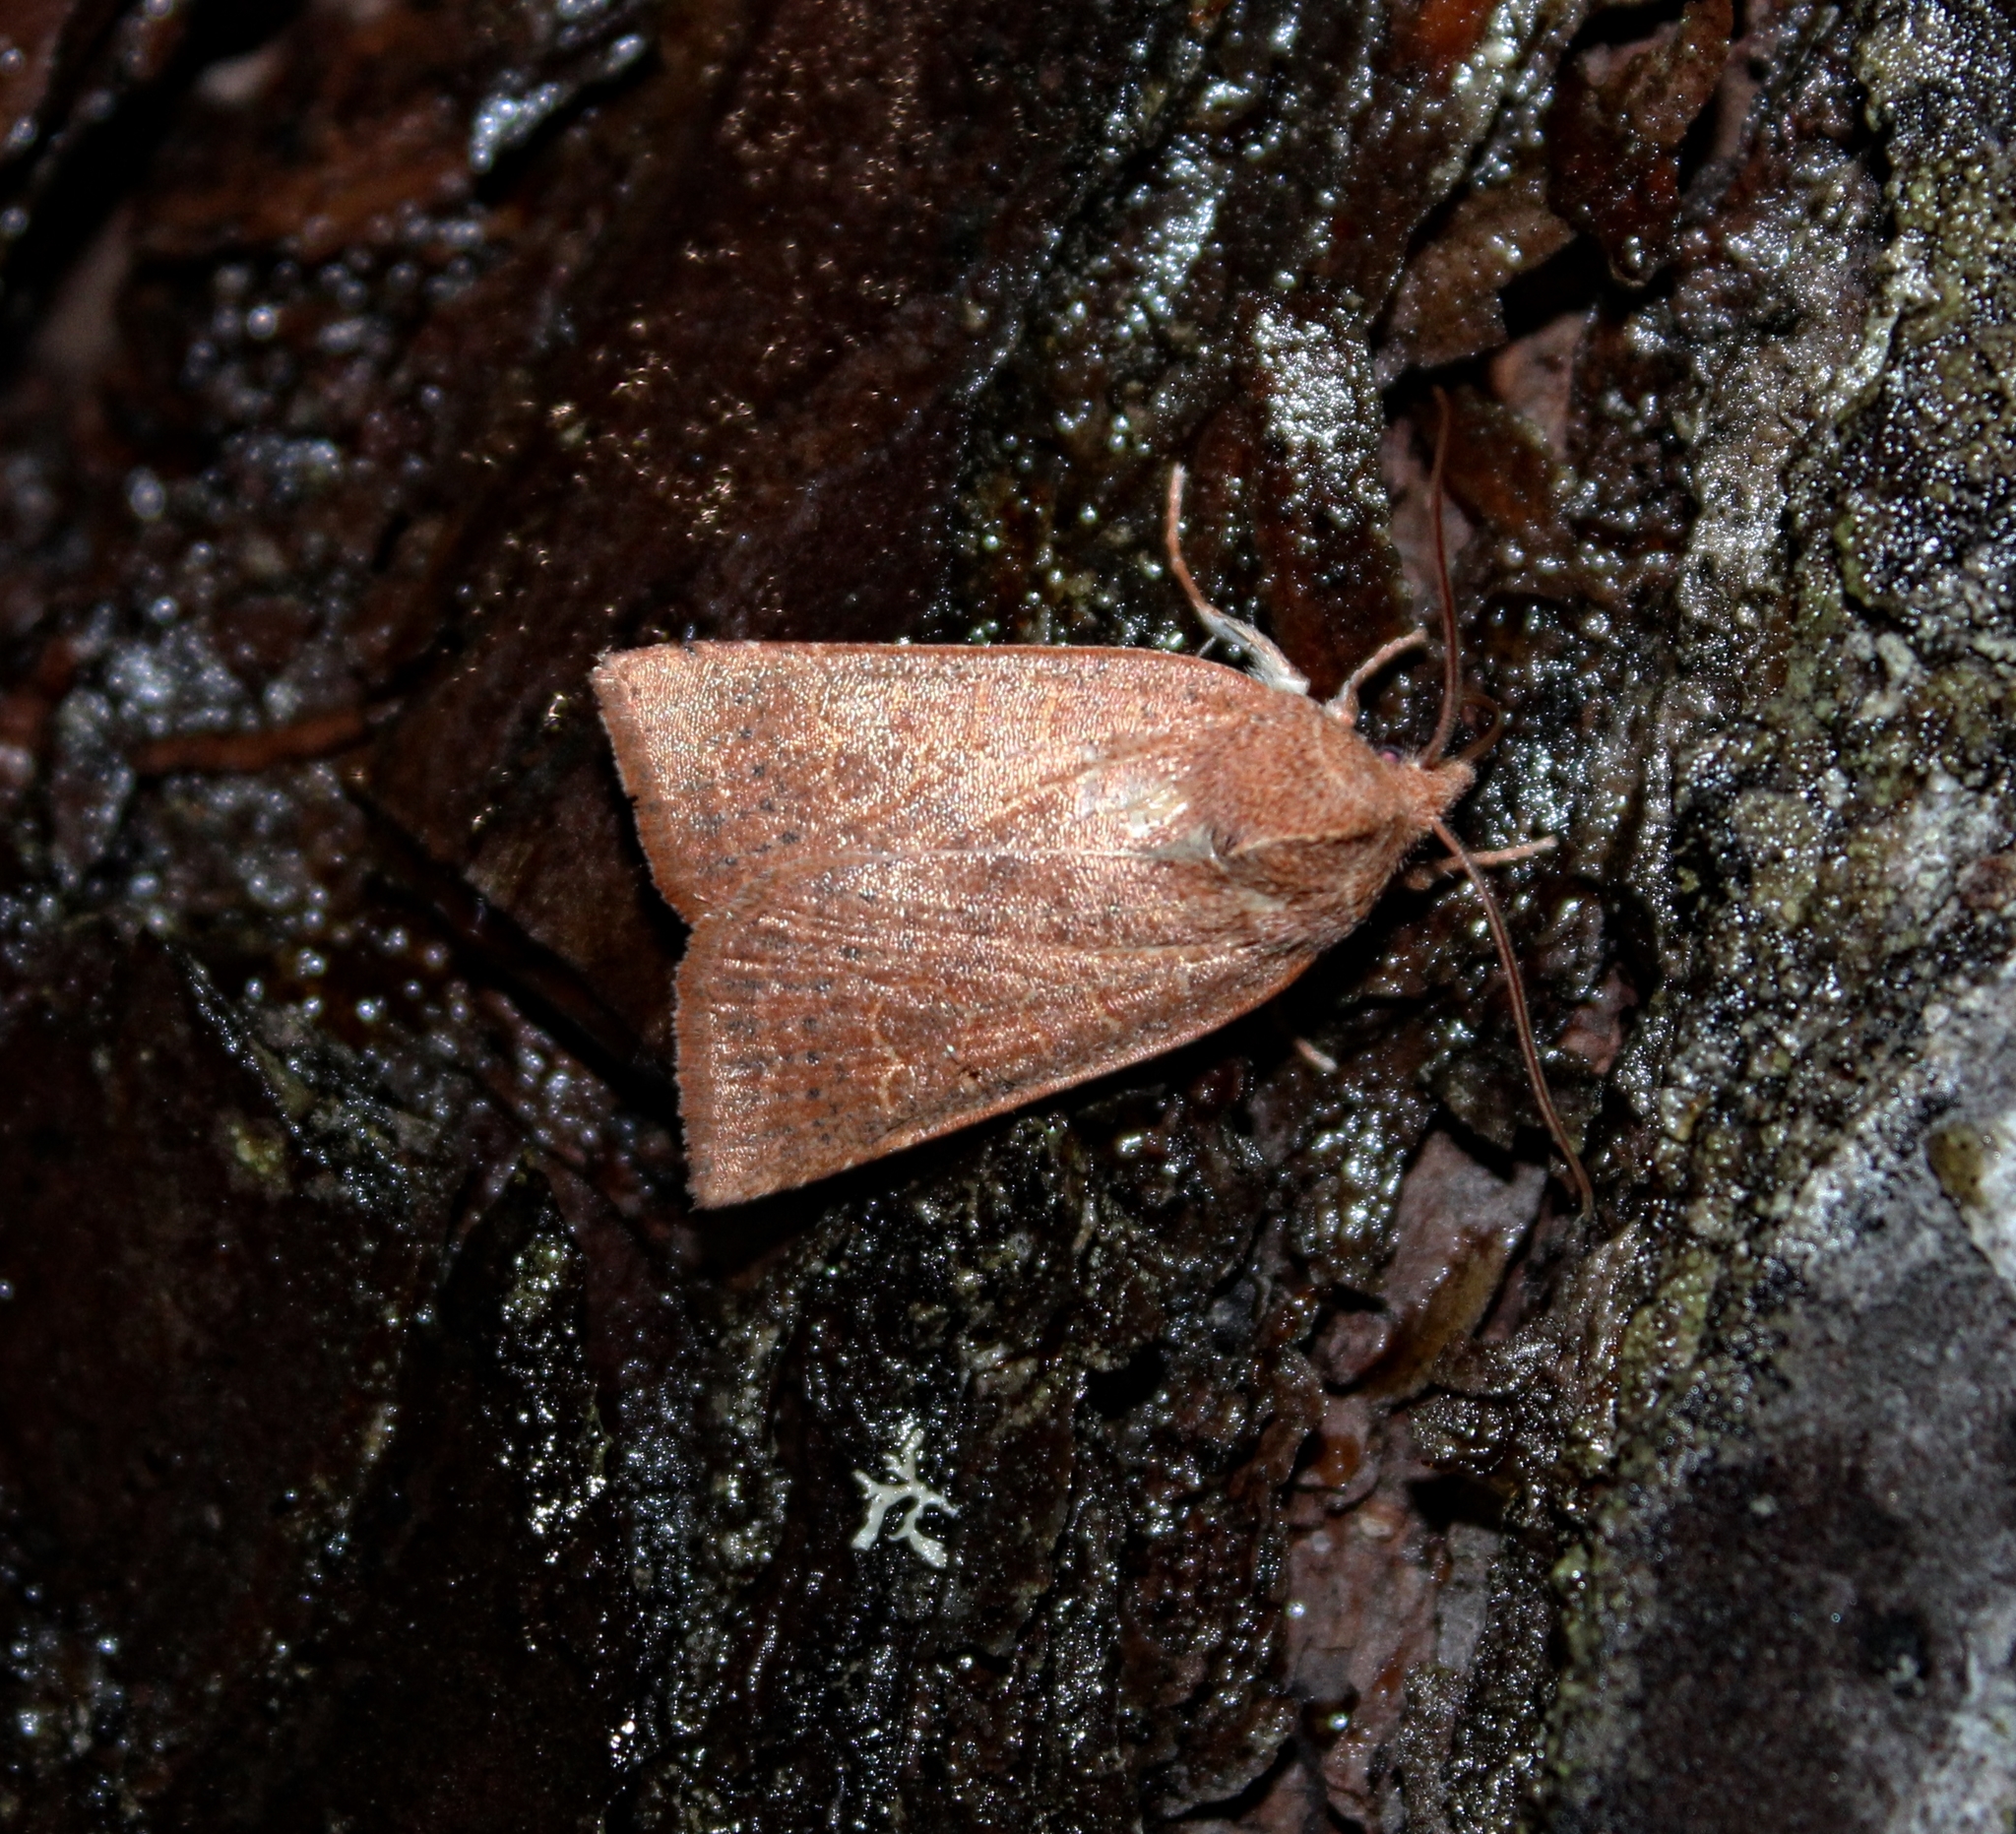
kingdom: Animalia
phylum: Arthropoda
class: Insecta
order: Lepidoptera
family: Noctuidae
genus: Xystopeplus
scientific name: Xystopeplus rufago
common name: Red-winged sallow
